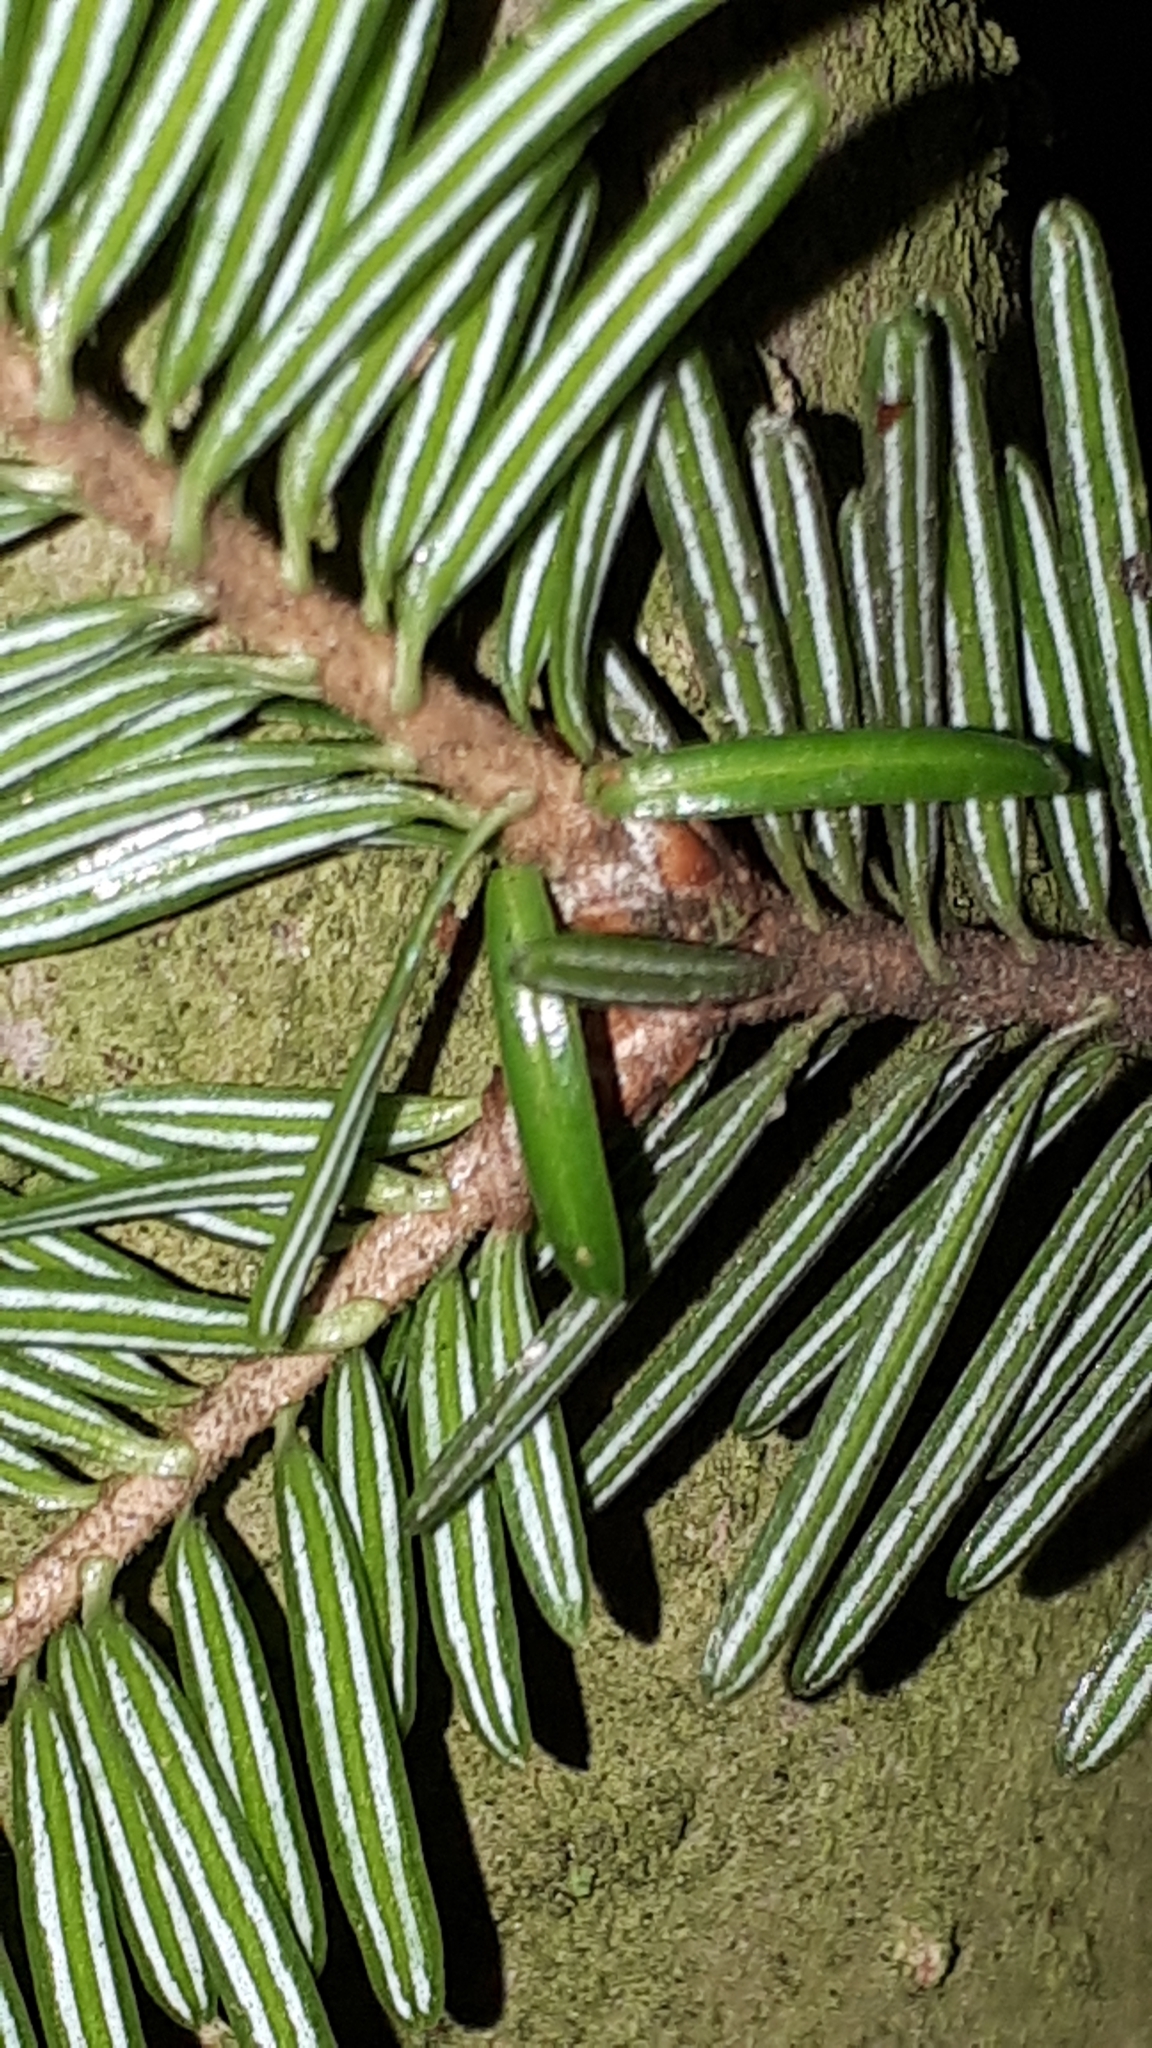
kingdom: Plantae
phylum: Tracheophyta
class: Pinopsida
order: Pinales
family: Pinaceae
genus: Abies
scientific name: Abies alba
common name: Silver fir
